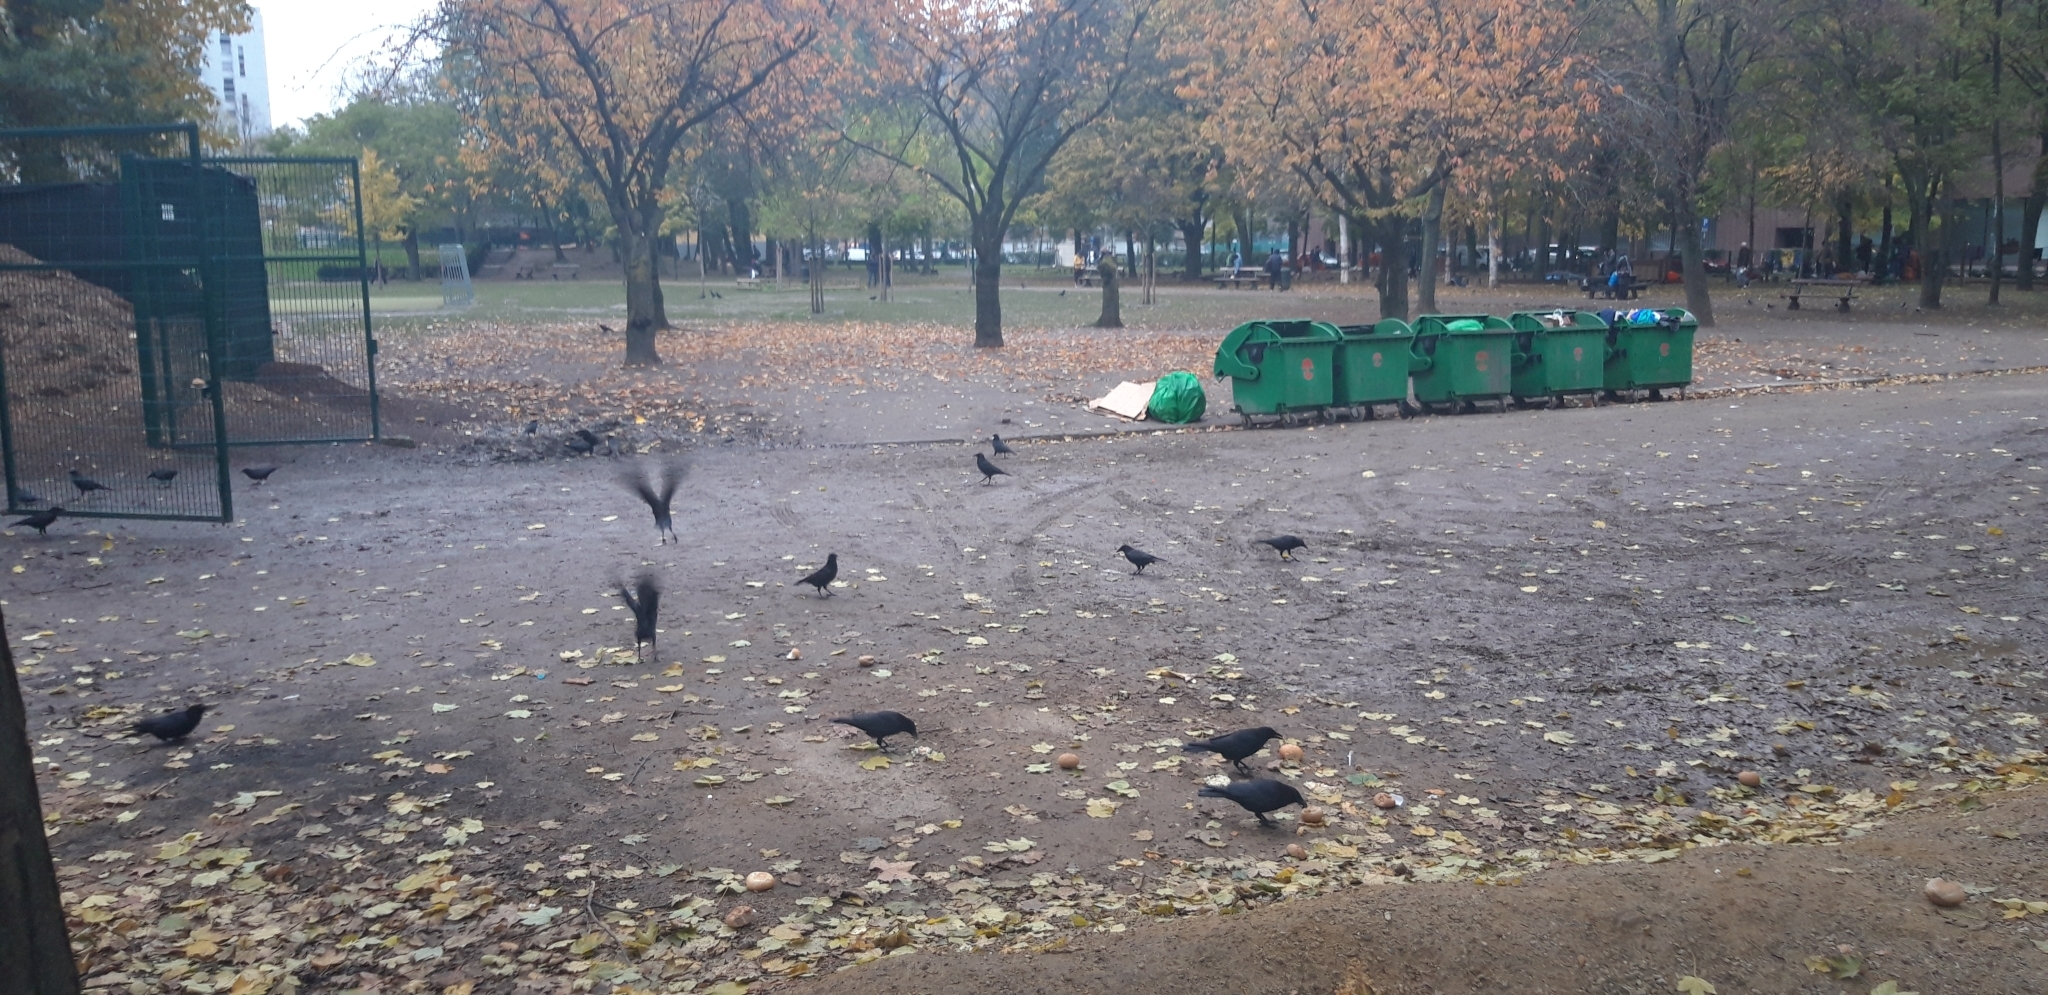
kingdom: Animalia
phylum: Chordata
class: Aves
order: Passeriformes
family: Corvidae
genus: Corvus
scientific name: Corvus corone
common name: Carrion crow
